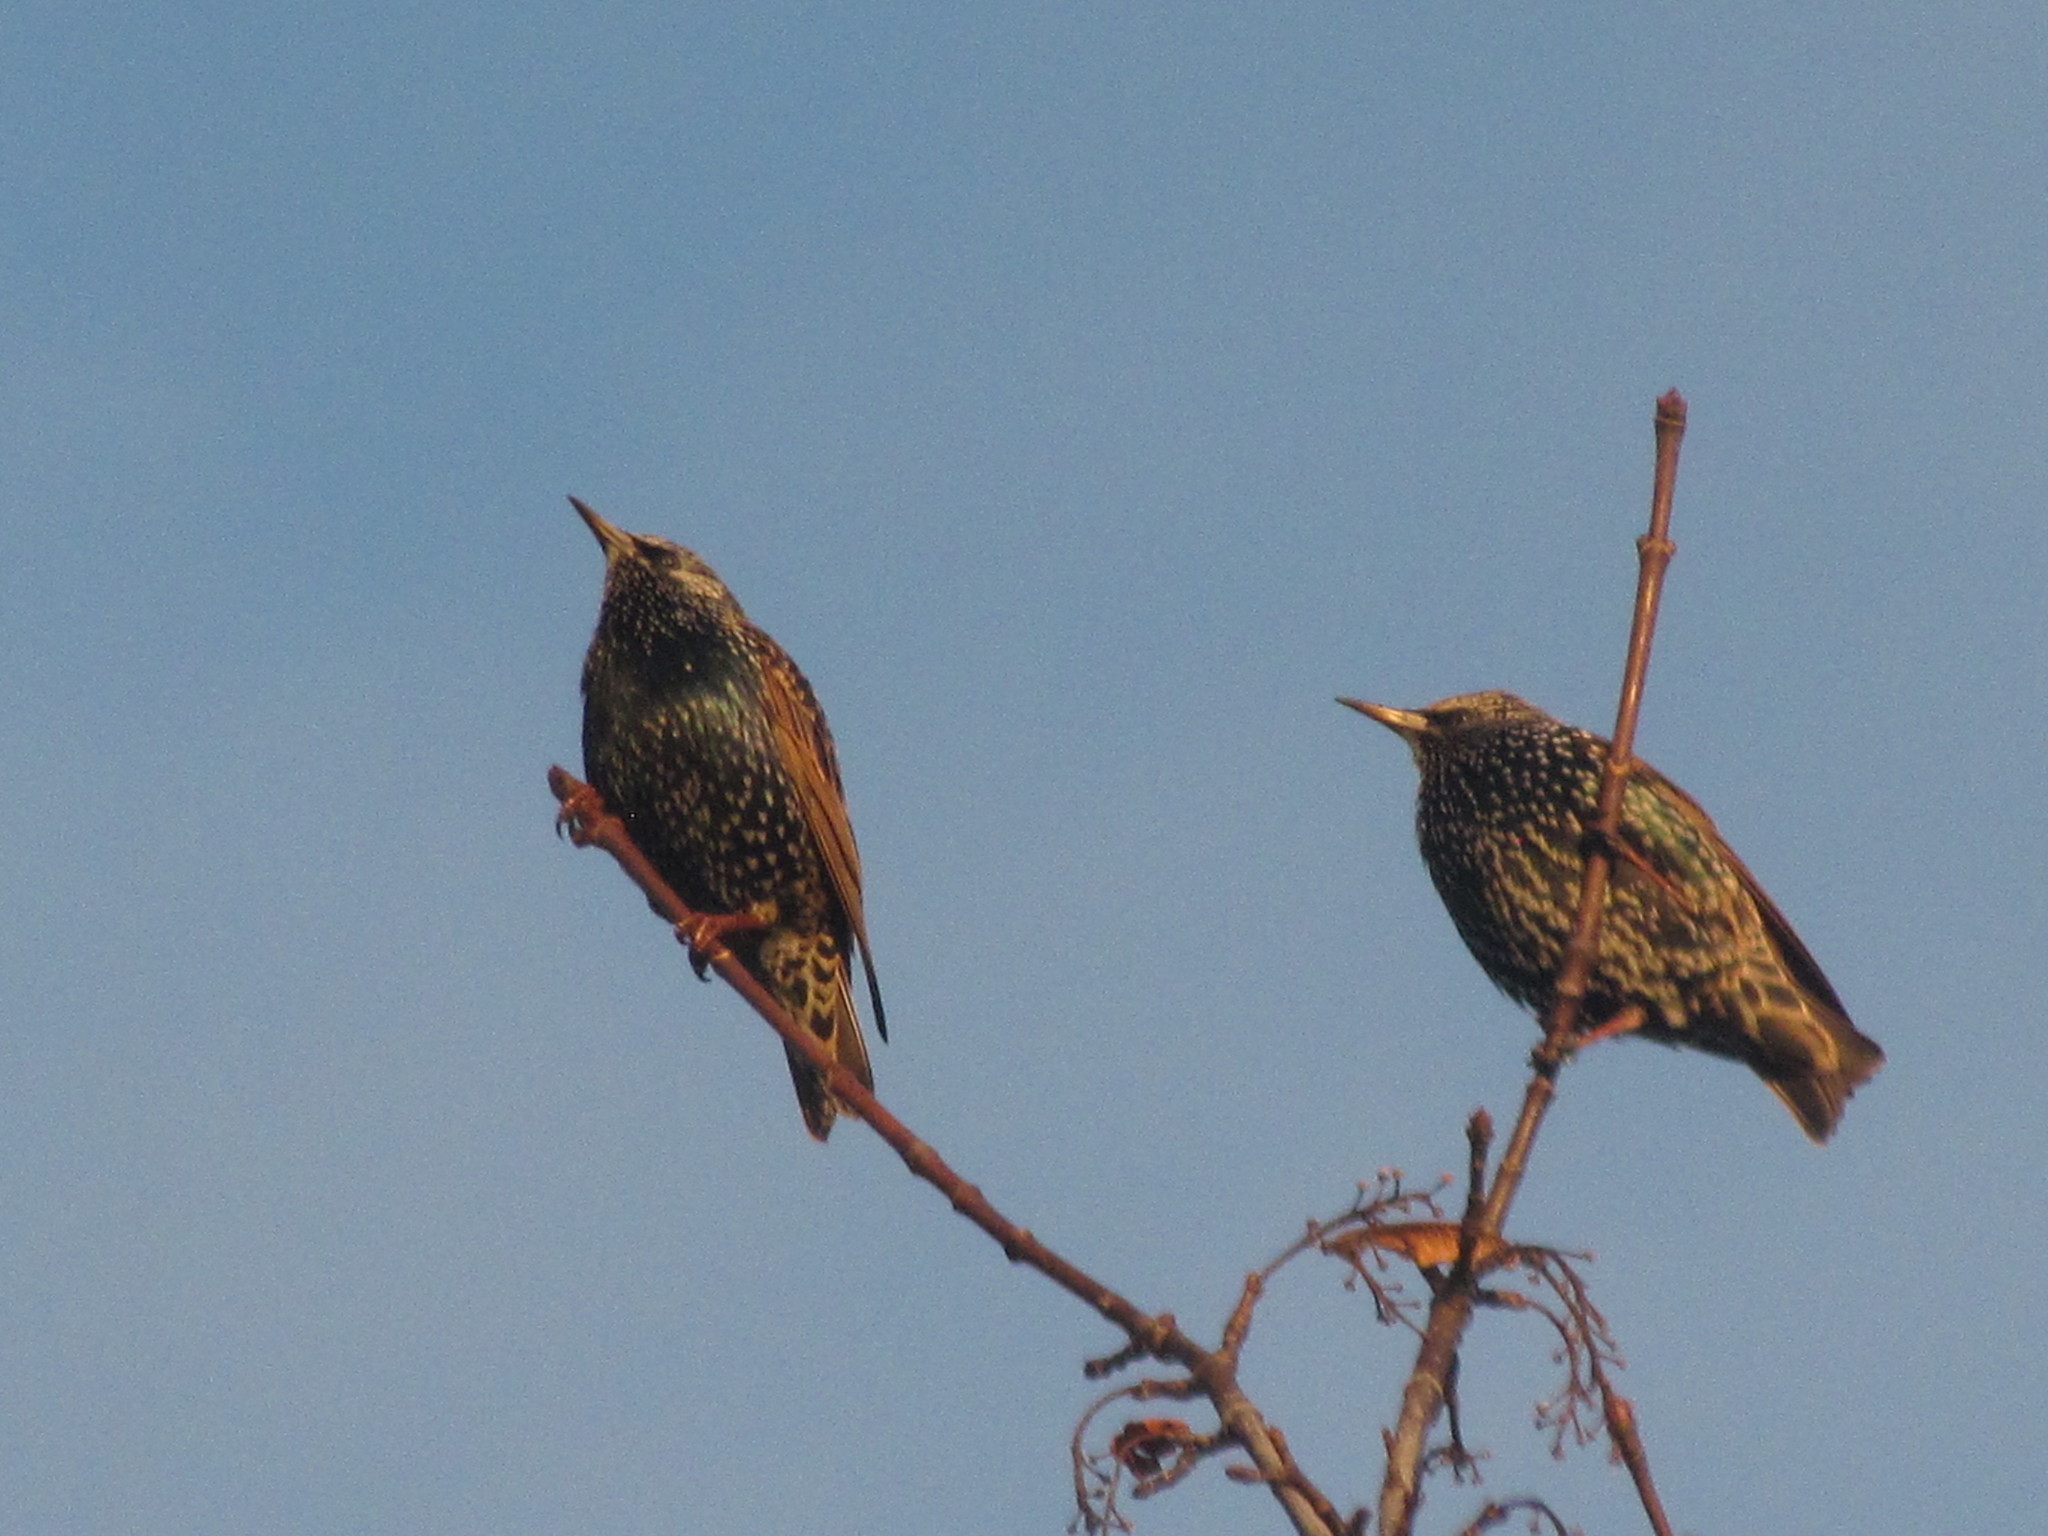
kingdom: Animalia
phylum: Chordata
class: Aves
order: Passeriformes
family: Sturnidae
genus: Sturnus
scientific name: Sturnus vulgaris
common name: Common starling
